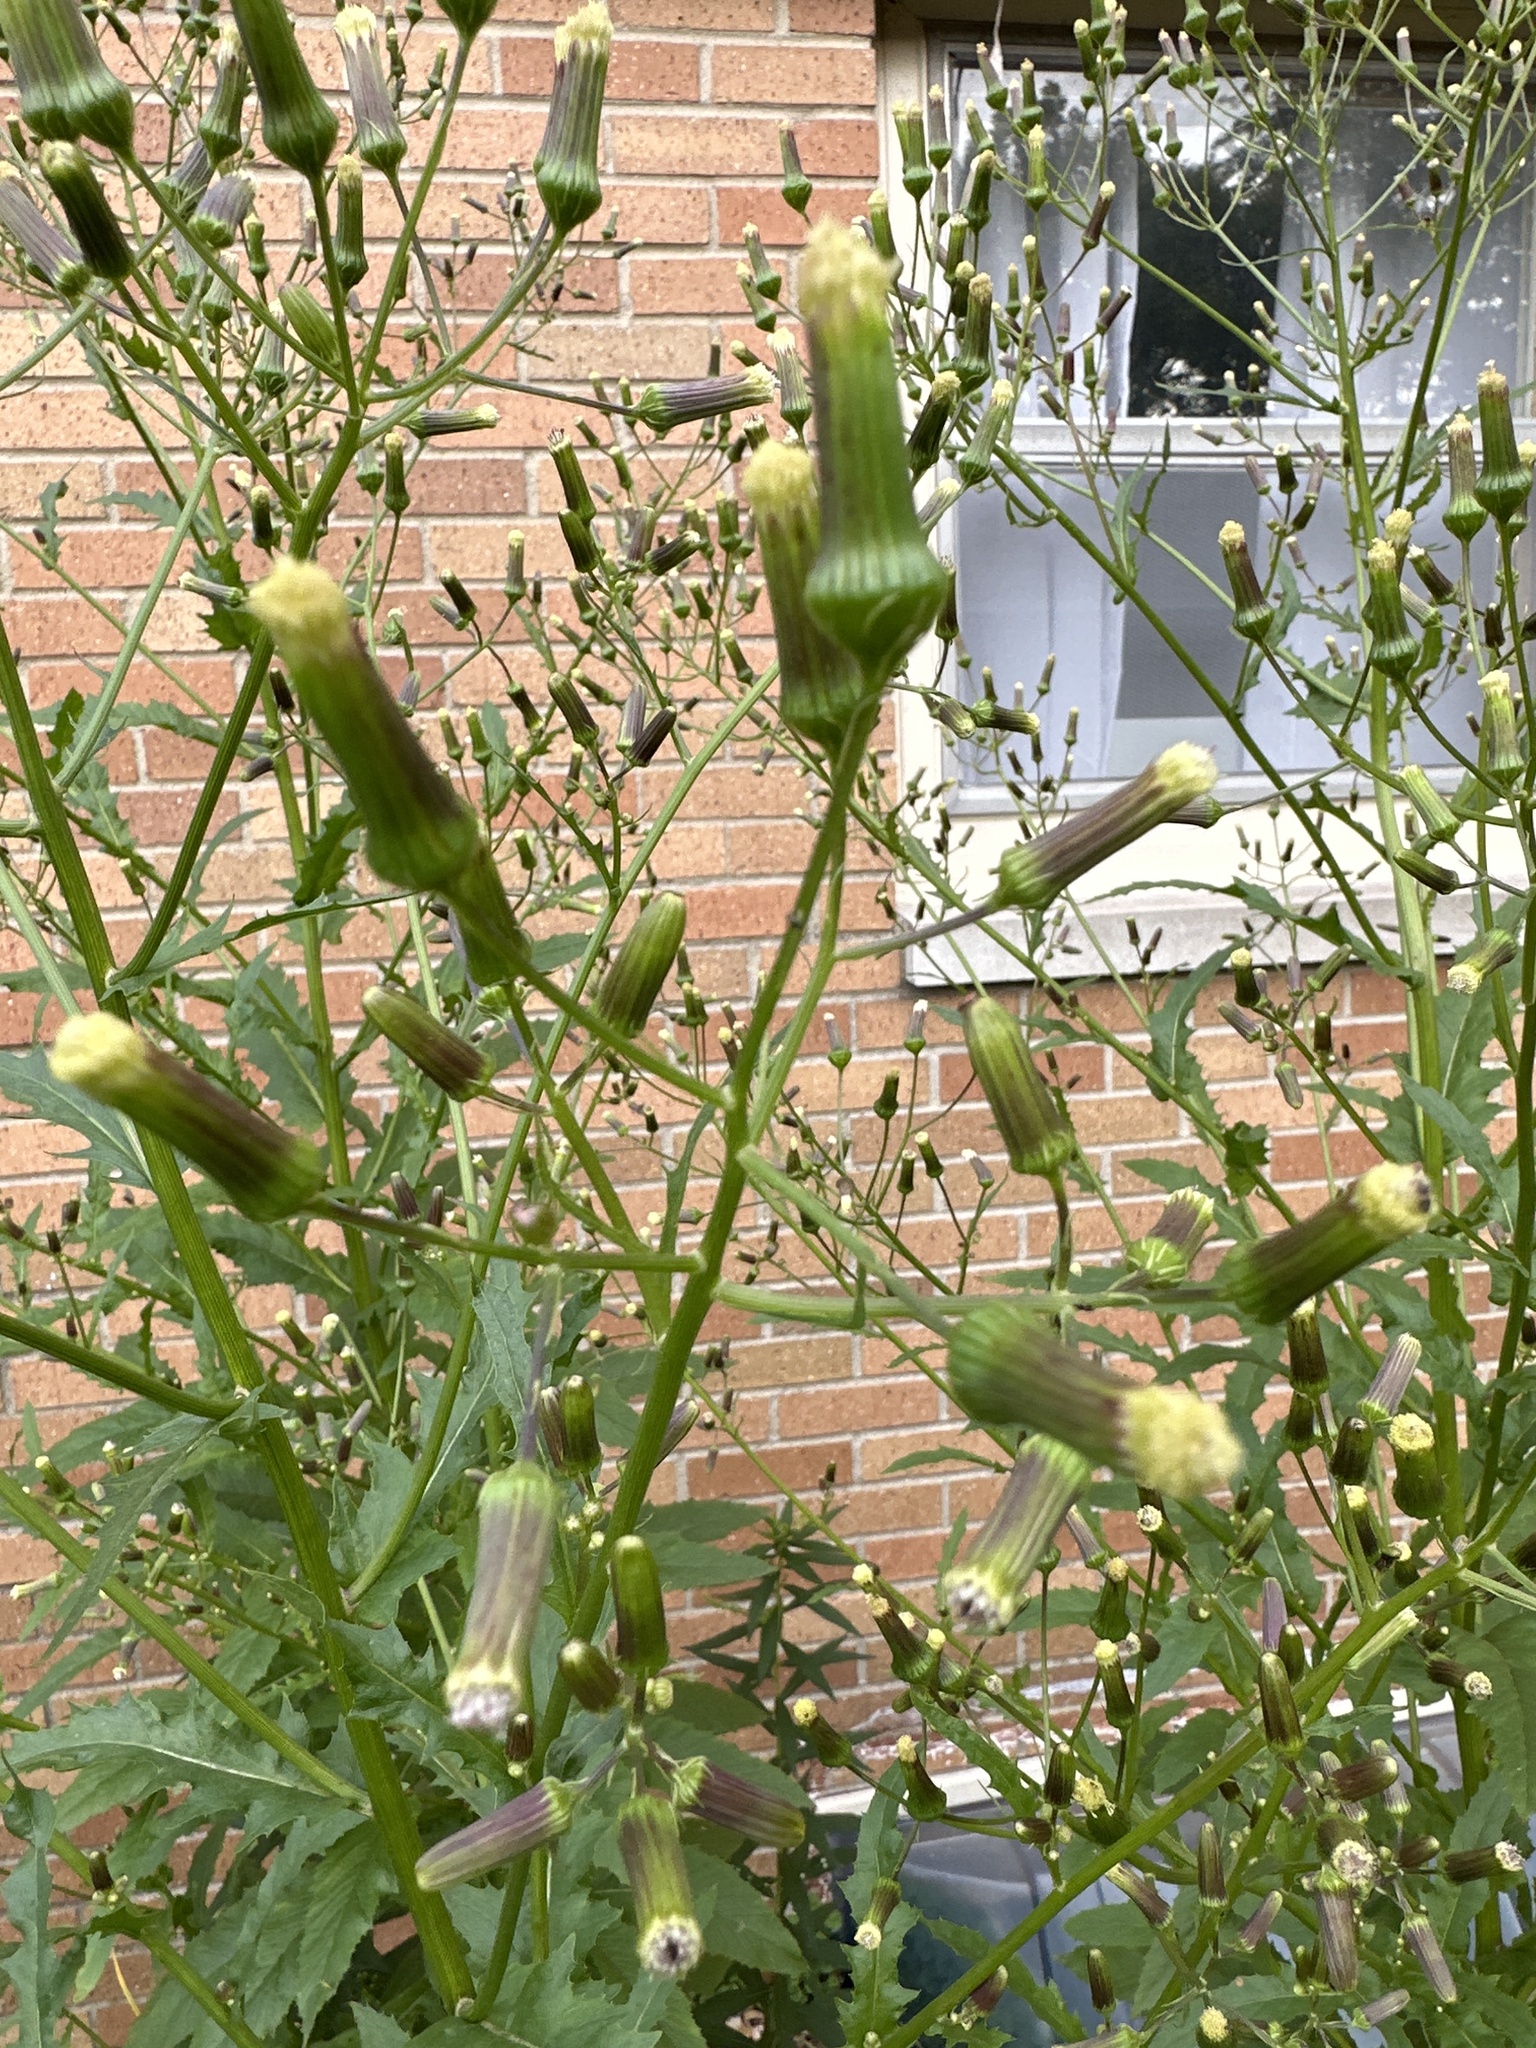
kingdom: Plantae
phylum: Tracheophyta
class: Magnoliopsida
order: Asterales
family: Asteraceae
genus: Erechtites
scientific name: Erechtites hieraciifolius
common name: American burnweed
